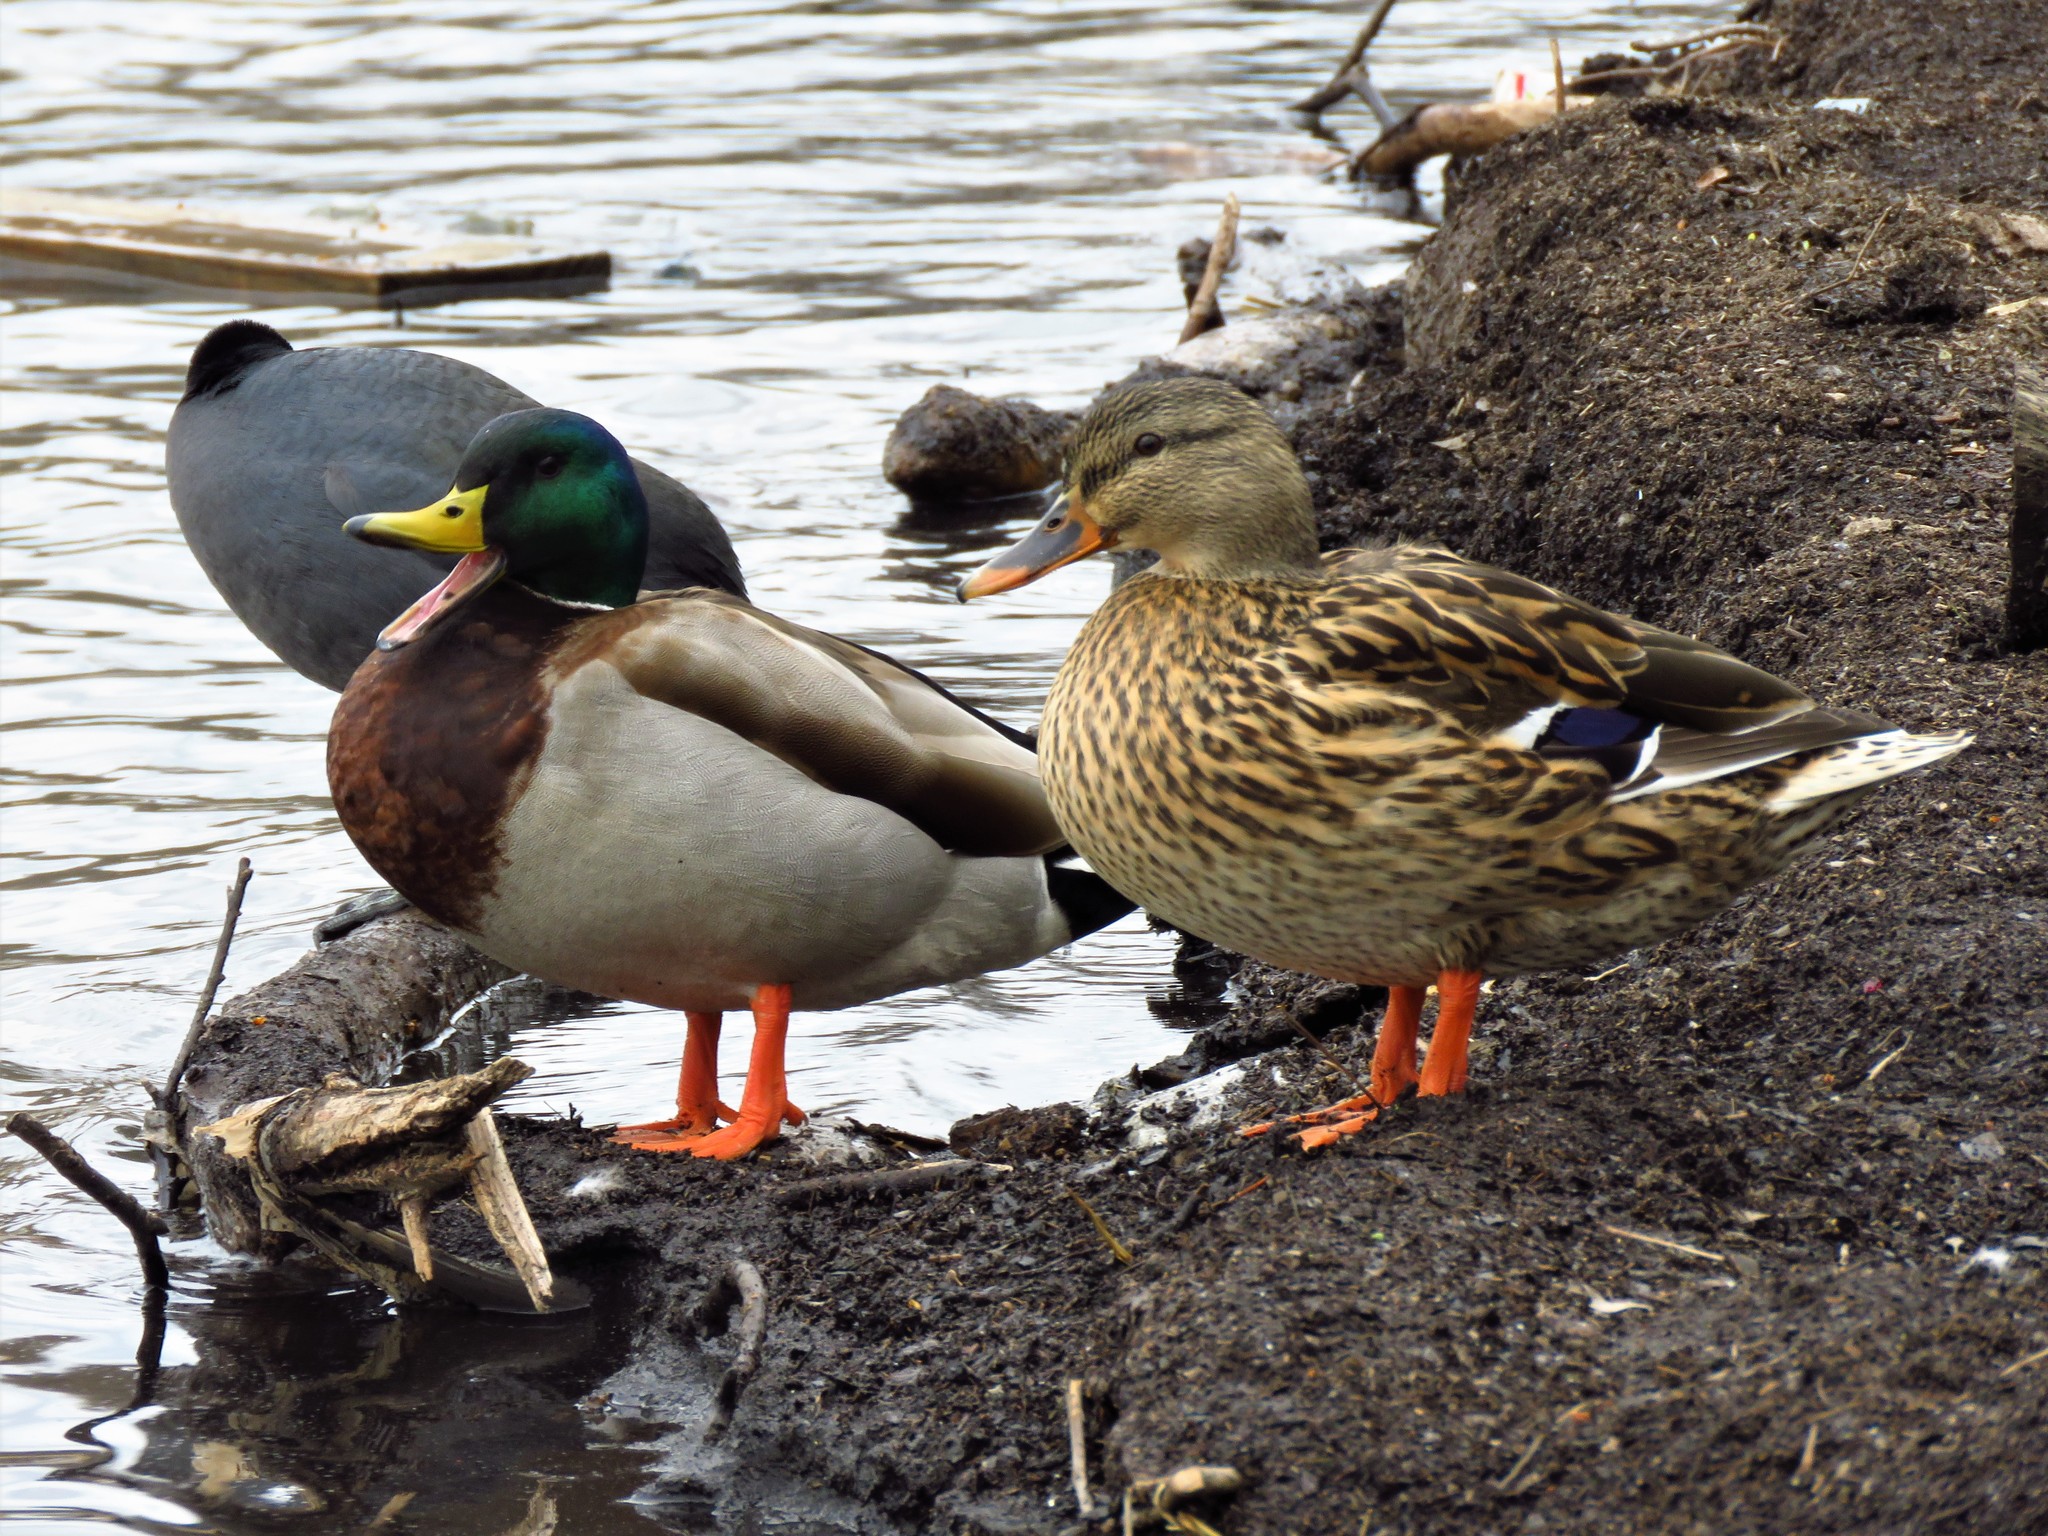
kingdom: Animalia
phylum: Chordata
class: Aves
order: Anseriformes
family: Anatidae
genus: Anas
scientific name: Anas platyrhynchos
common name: Mallard
